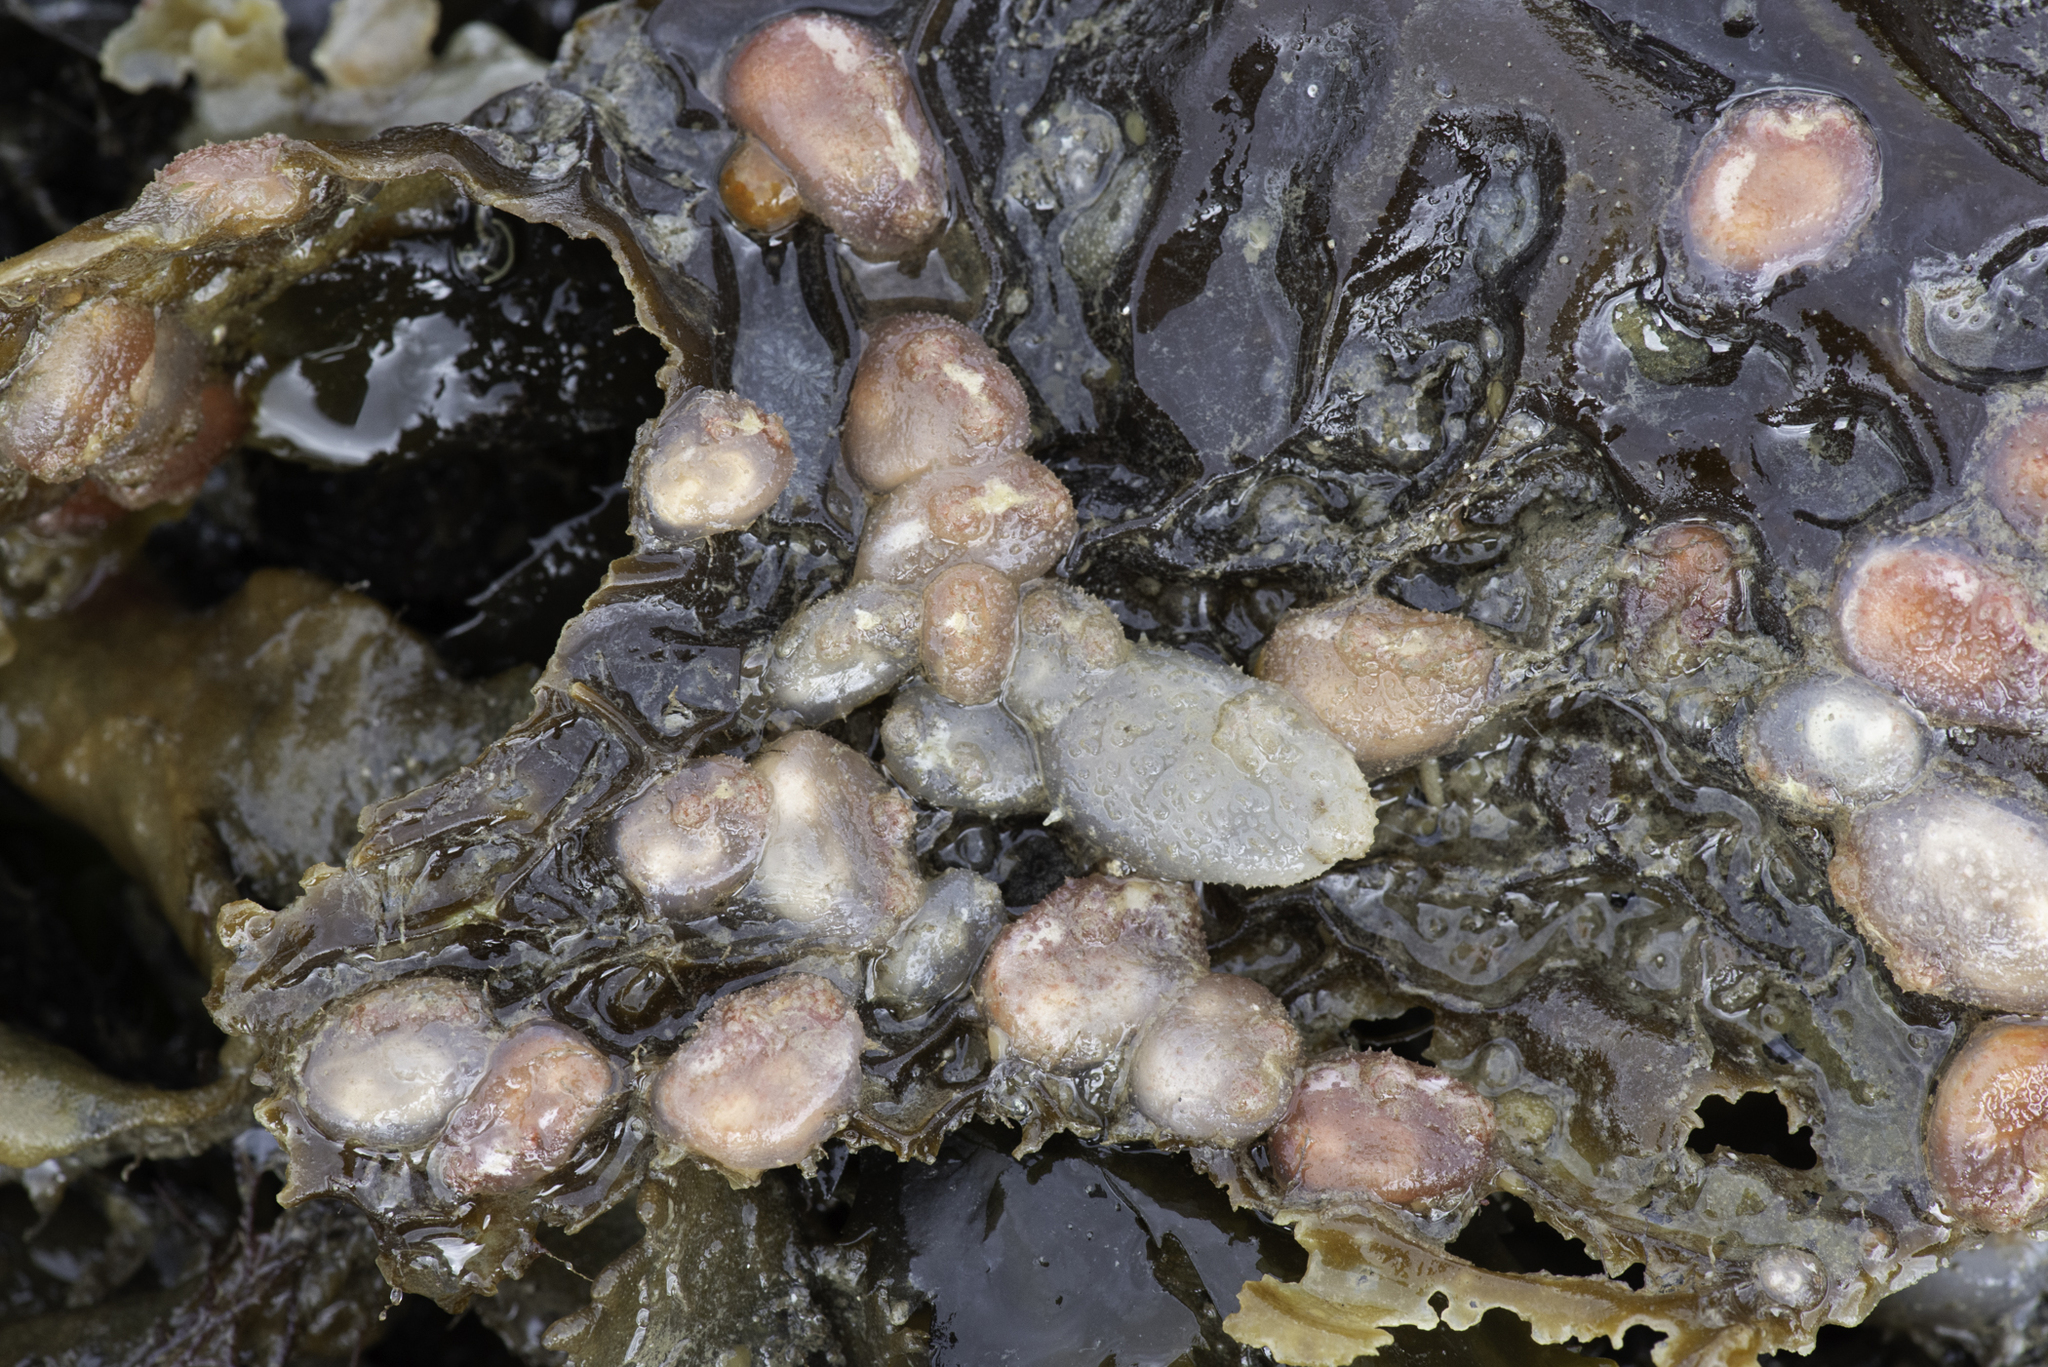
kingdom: Animalia
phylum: Chordata
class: Ascidiacea
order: Phlebobranchia
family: Ascidiidae
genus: Ascidiella
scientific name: Ascidiella scabra
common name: Hairy sea-squirt
